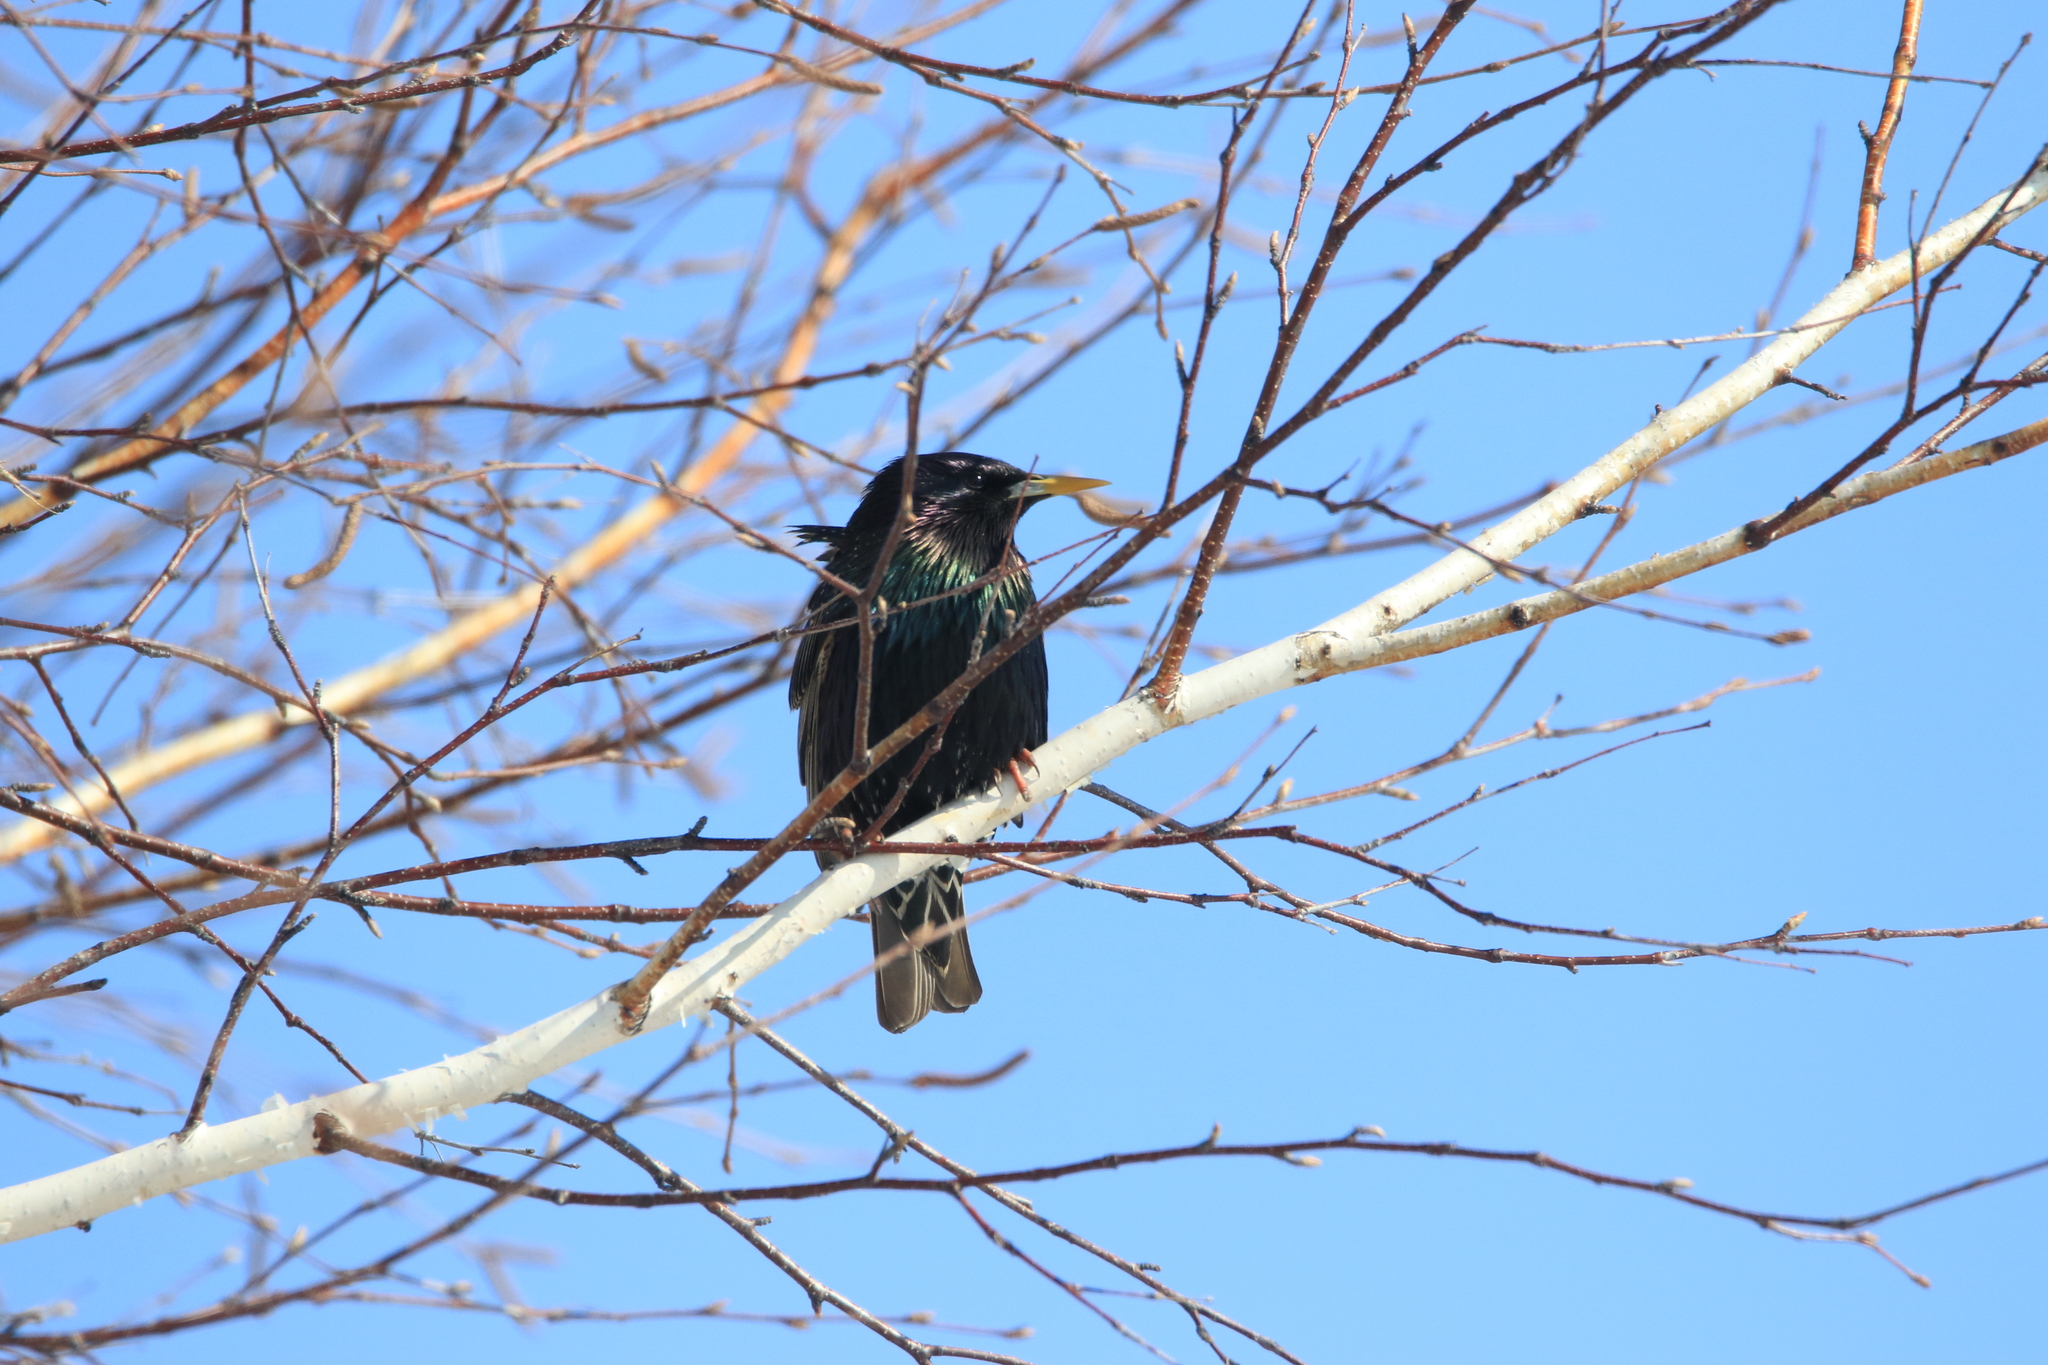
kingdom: Animalia
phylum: Chordata
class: Aves
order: Passeriformes
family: Sturnidae
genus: Sturnus
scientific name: Sturnus vulgaris
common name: Common starling
